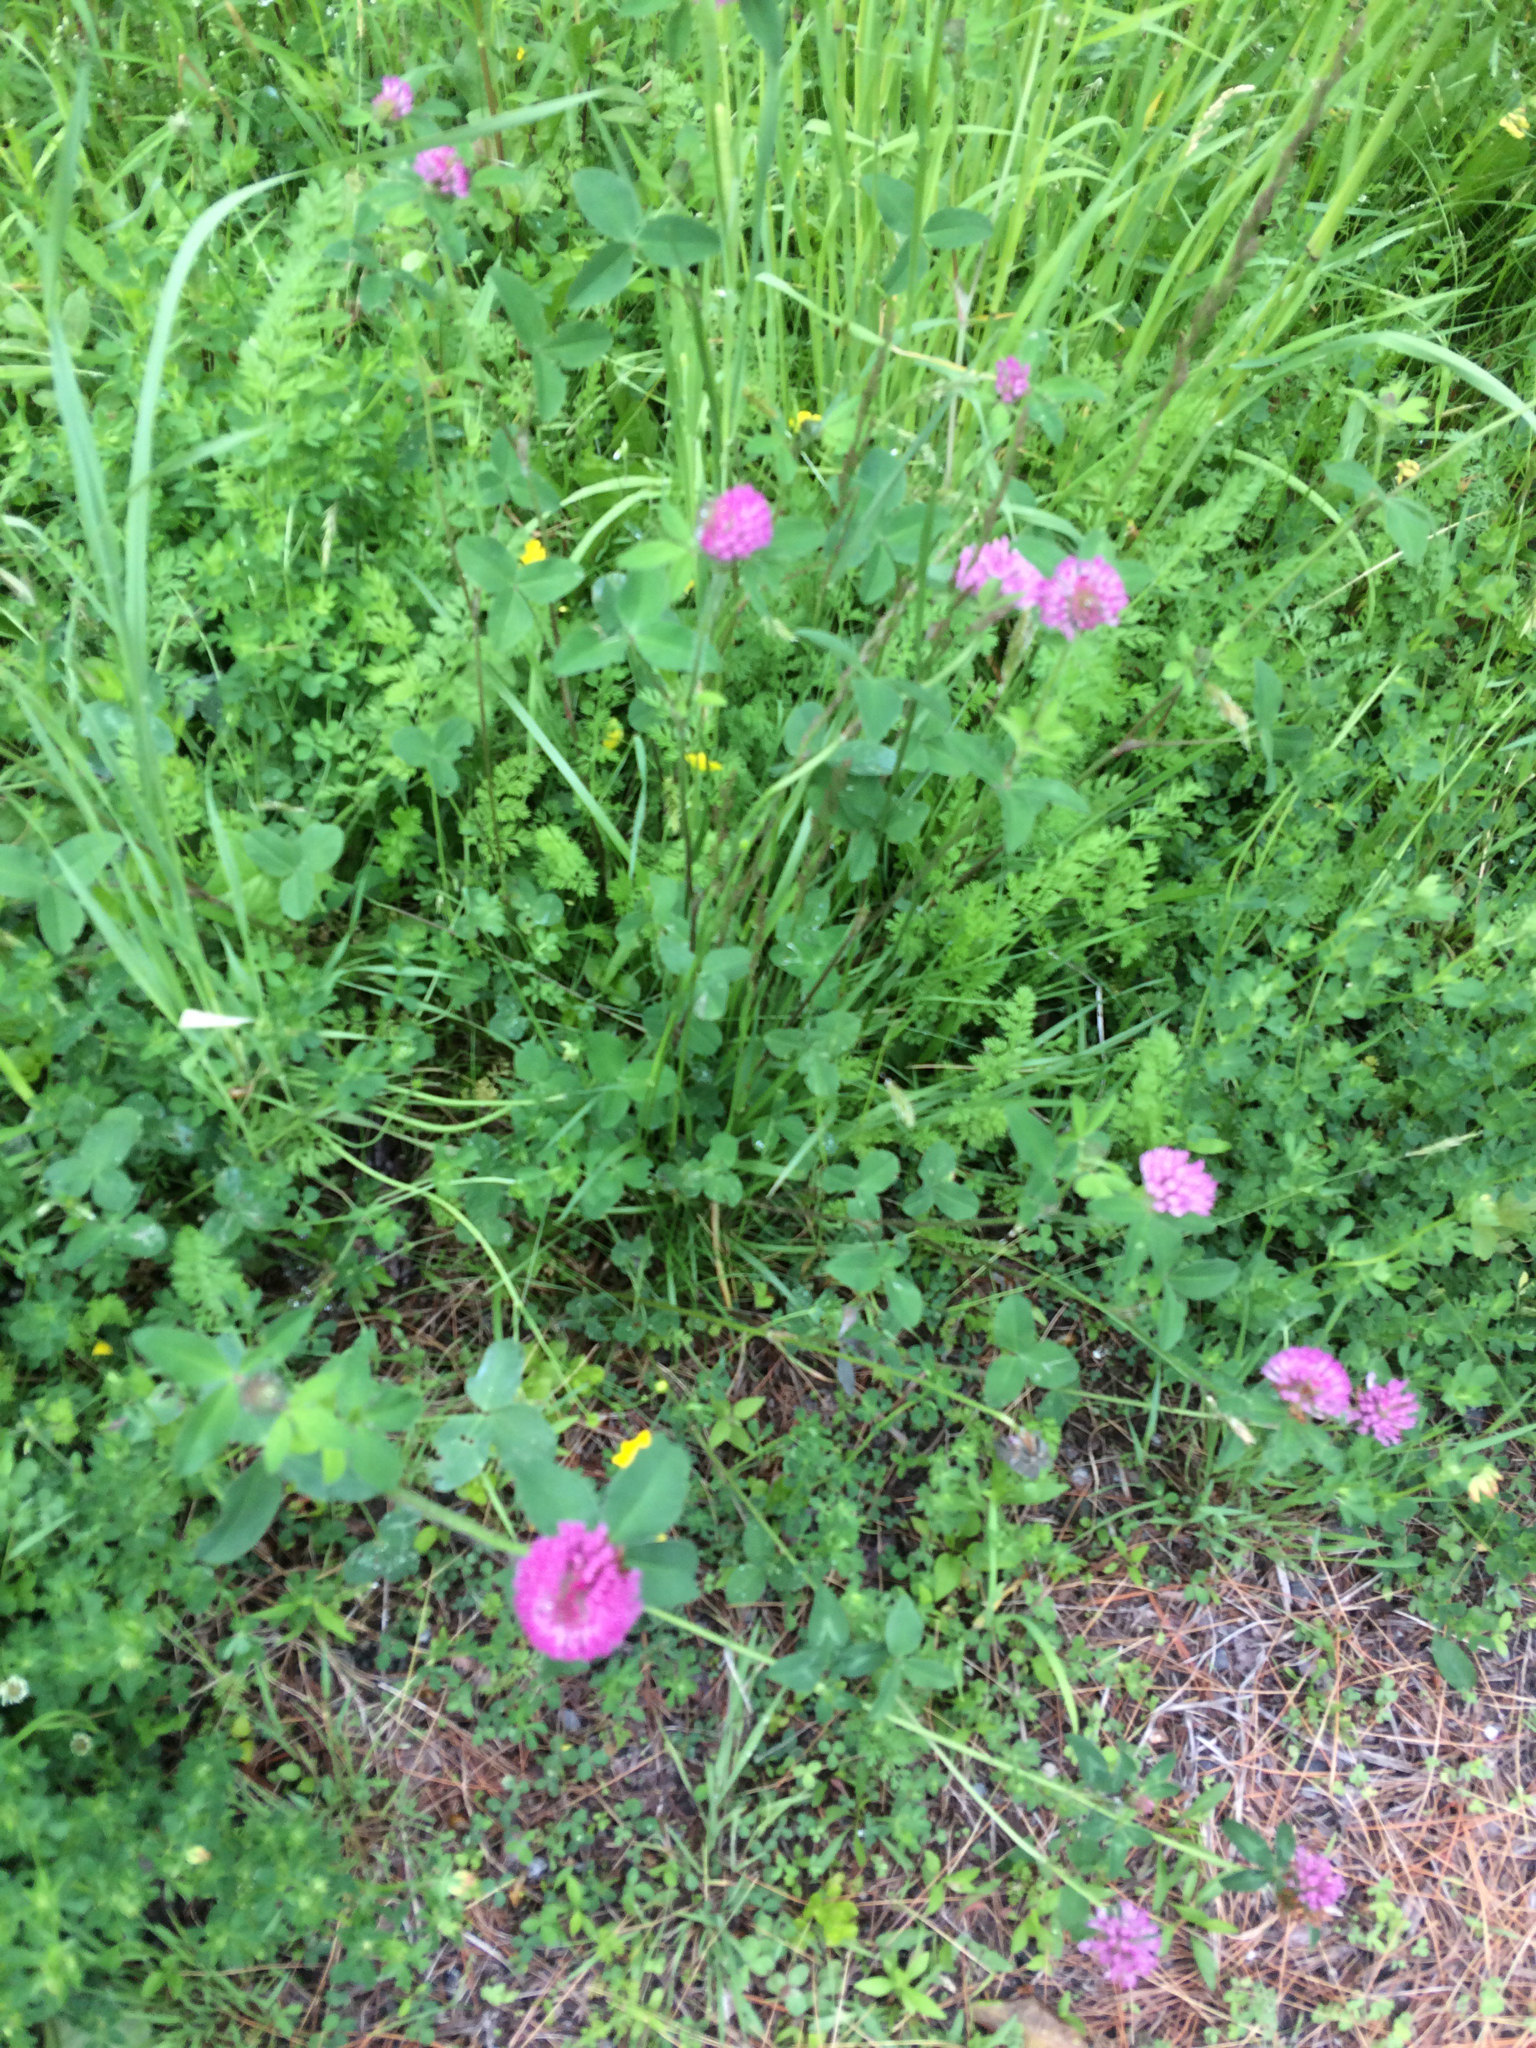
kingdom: Plantae
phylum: Tracheophyta
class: Magnoliopsida
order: Fabales
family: Fabaceae
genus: Trifolium
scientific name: Trifolium pratense
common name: Red clover
